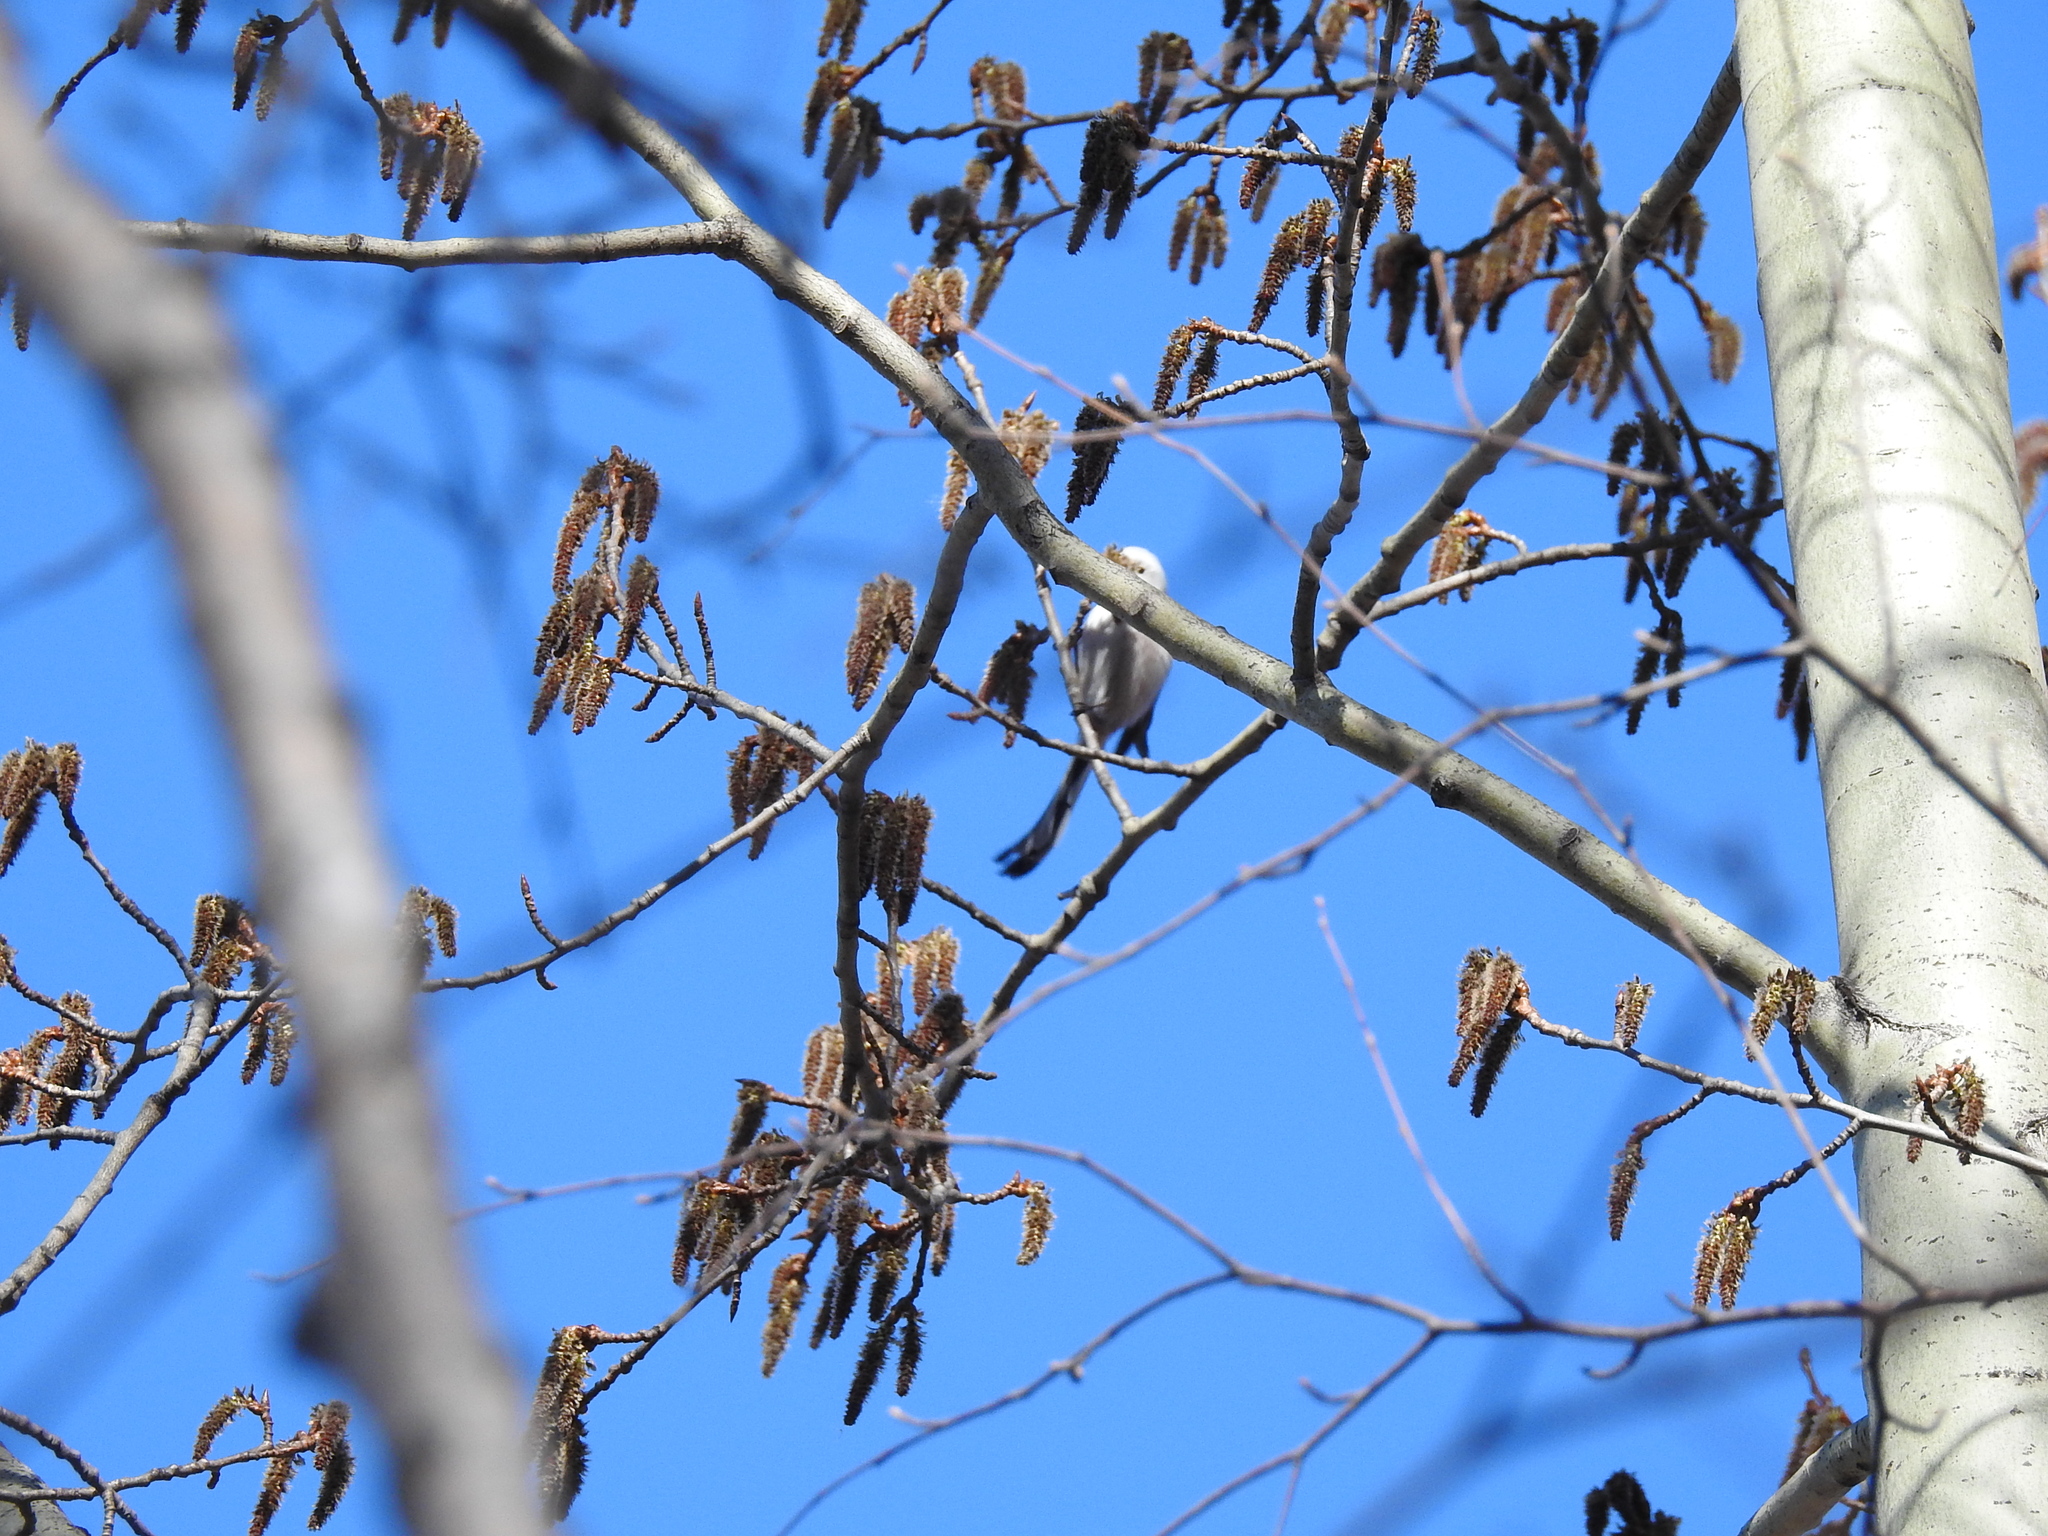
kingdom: Animalia
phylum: Chordata
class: Aves
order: Passeriformes
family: Aegithalidae
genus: Aegithalos
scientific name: Aegithalos caudatus
